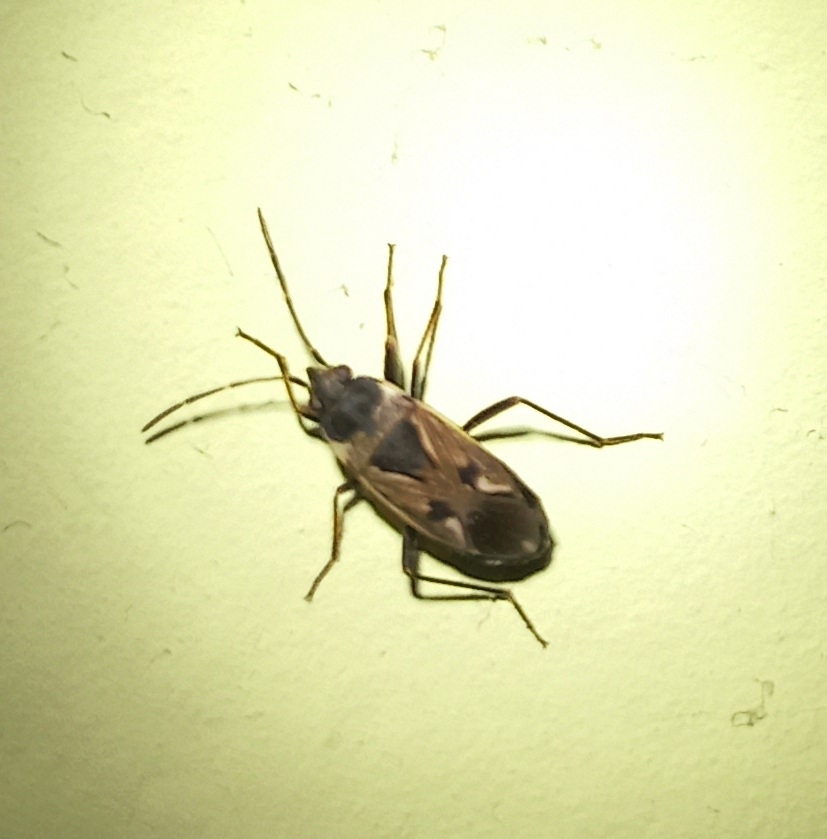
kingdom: Animalia
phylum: Arthropoda
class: Insecta
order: Hemiptera
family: Rhyparochromidae
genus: Rhyparochromus
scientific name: Rhyparochromus vulgaris
